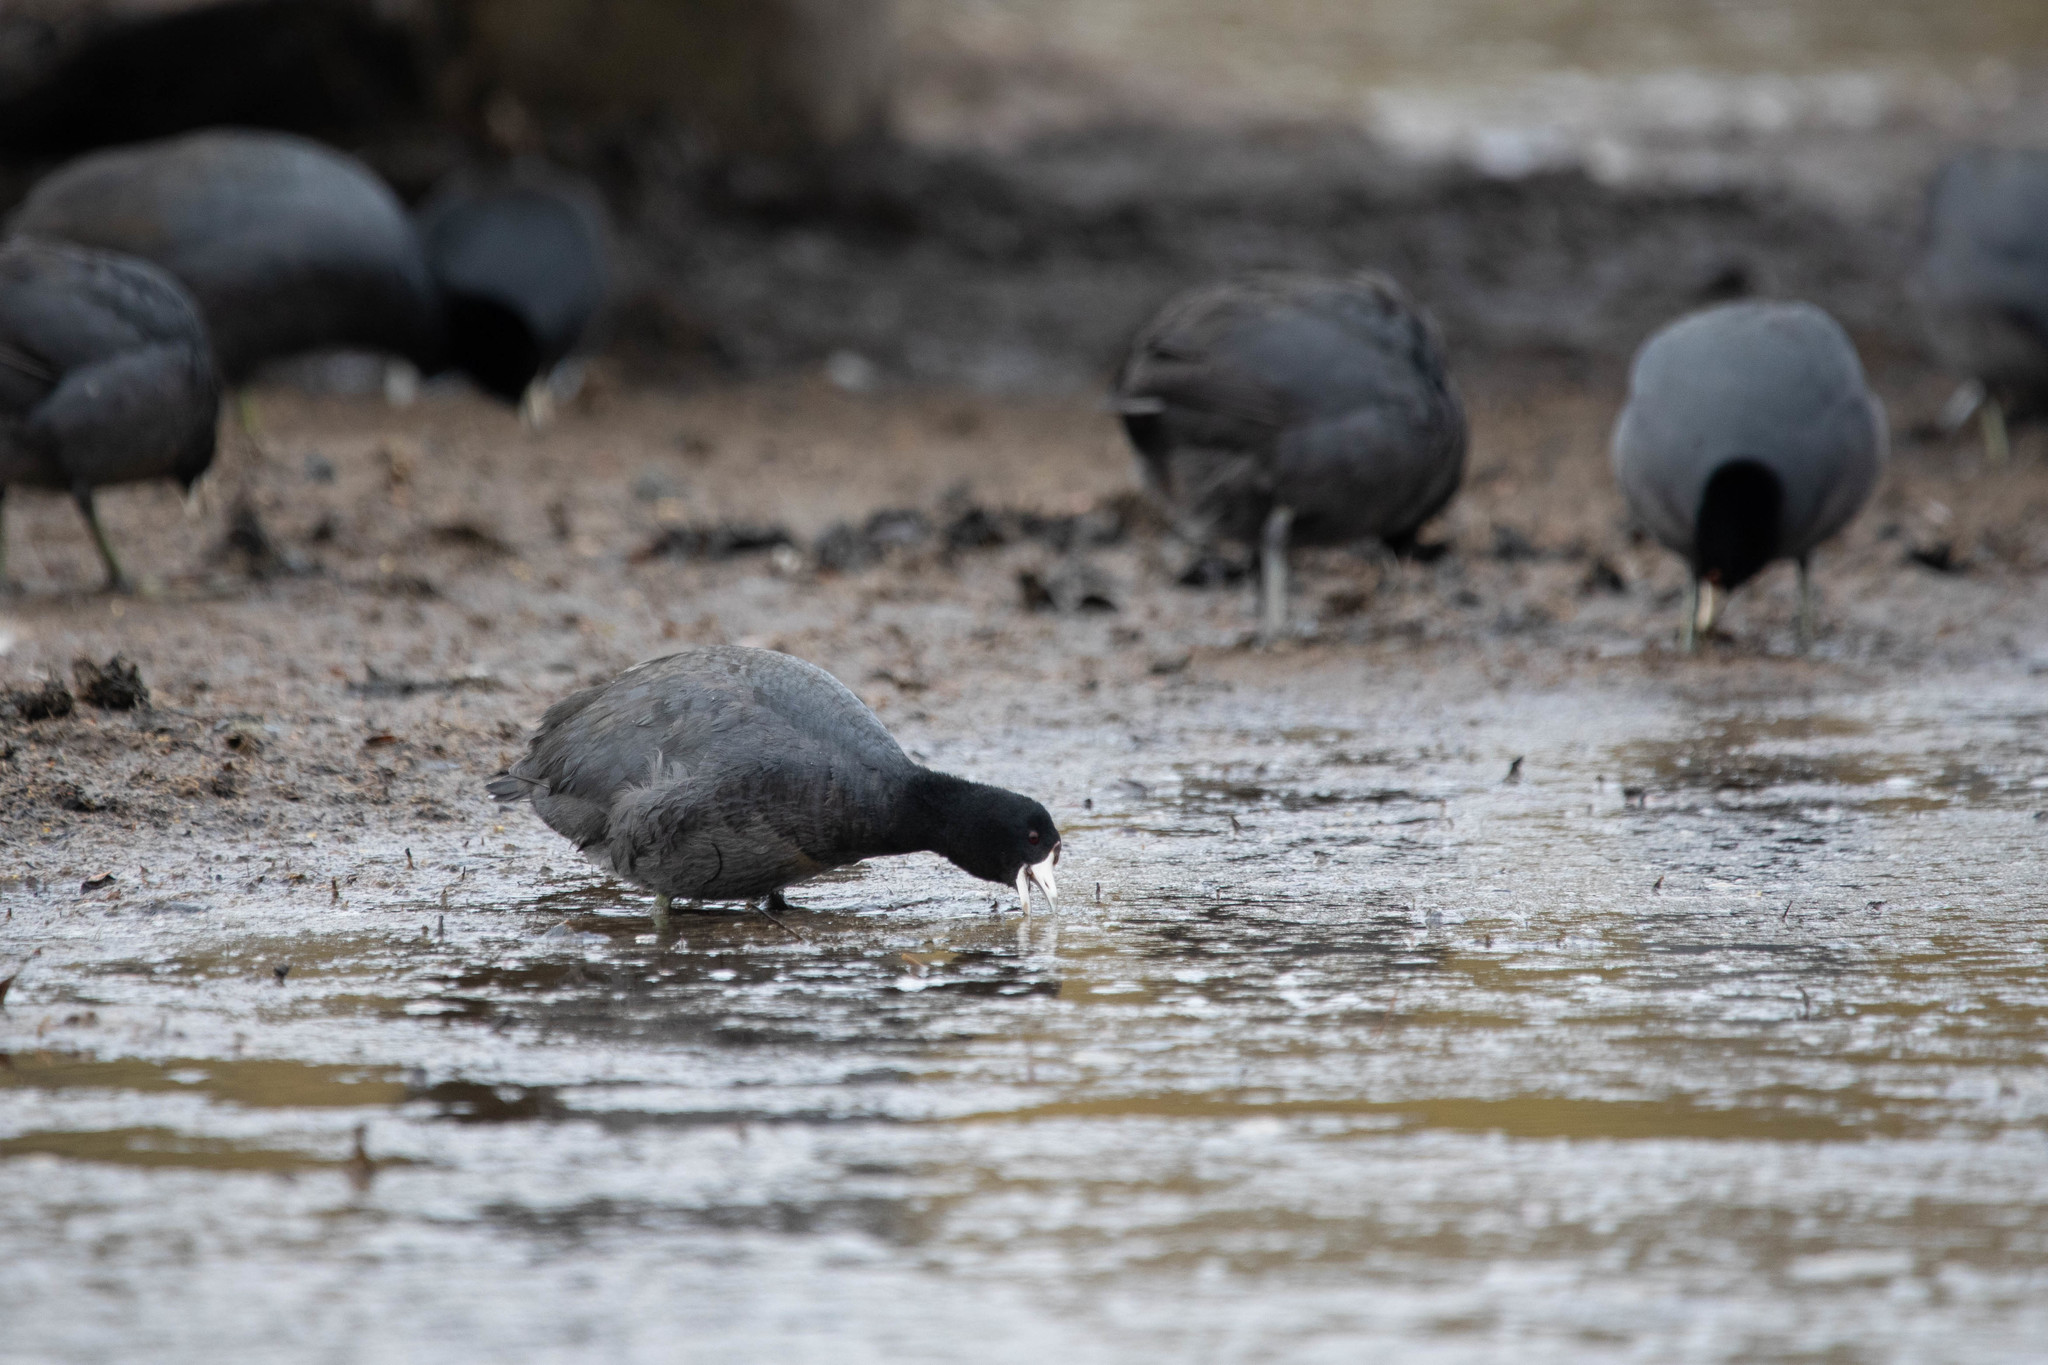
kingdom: Animalia
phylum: Chordata
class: Aves
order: Gruiformes
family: Rallidae
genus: Fulica
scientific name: Fulica americana
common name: American coot
